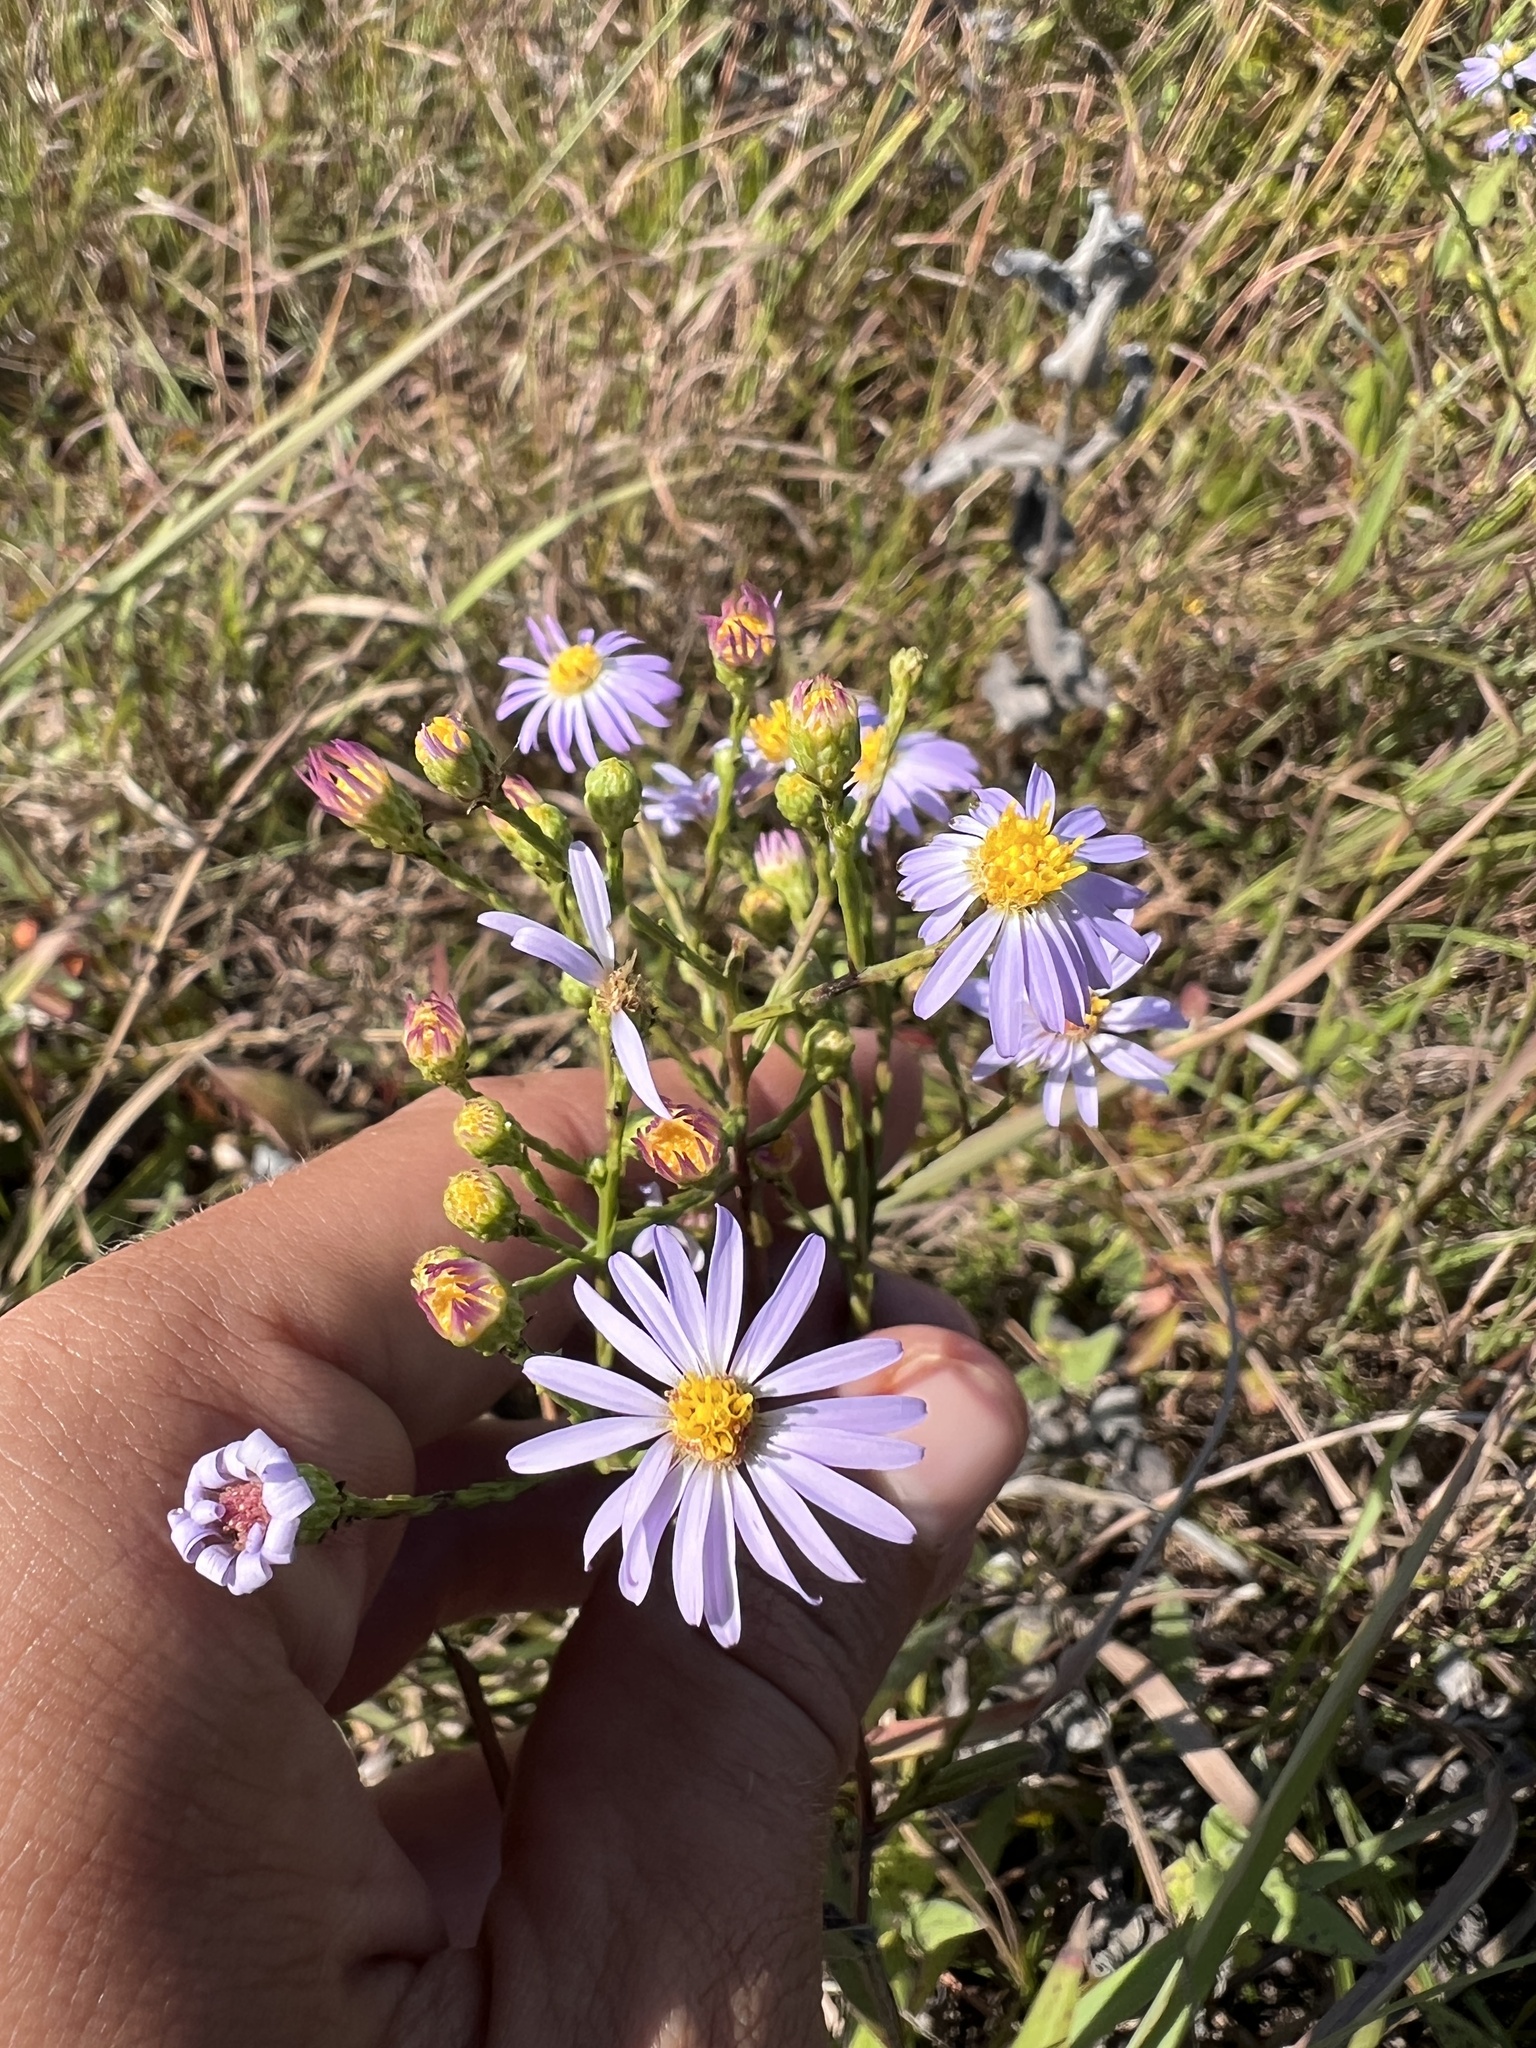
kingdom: Plantae
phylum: Tracheophyta
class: Magnoliopsida
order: Asterales
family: Asteraceae
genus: Symphyotrichum
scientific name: Symphyotrichum oolentangiense
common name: Azure aster
